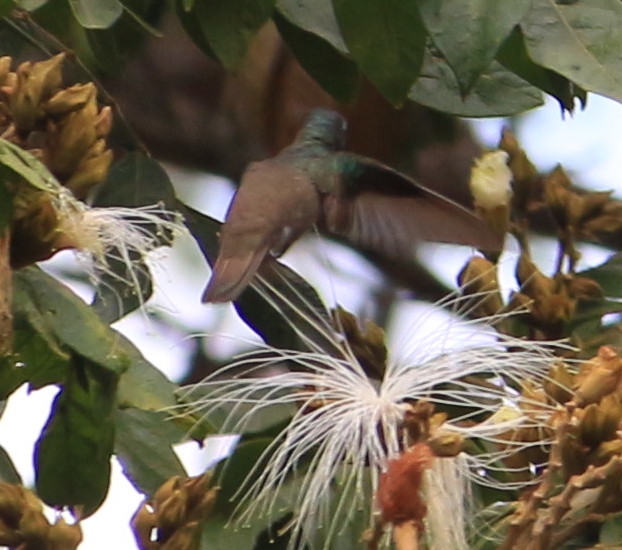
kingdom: Animalia
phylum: Chordata
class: Aves
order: Apodiformes
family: Trochilidae
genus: Saucerottia
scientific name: Saucerottia cyanocephala
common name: Azure-crowned hummingbird
